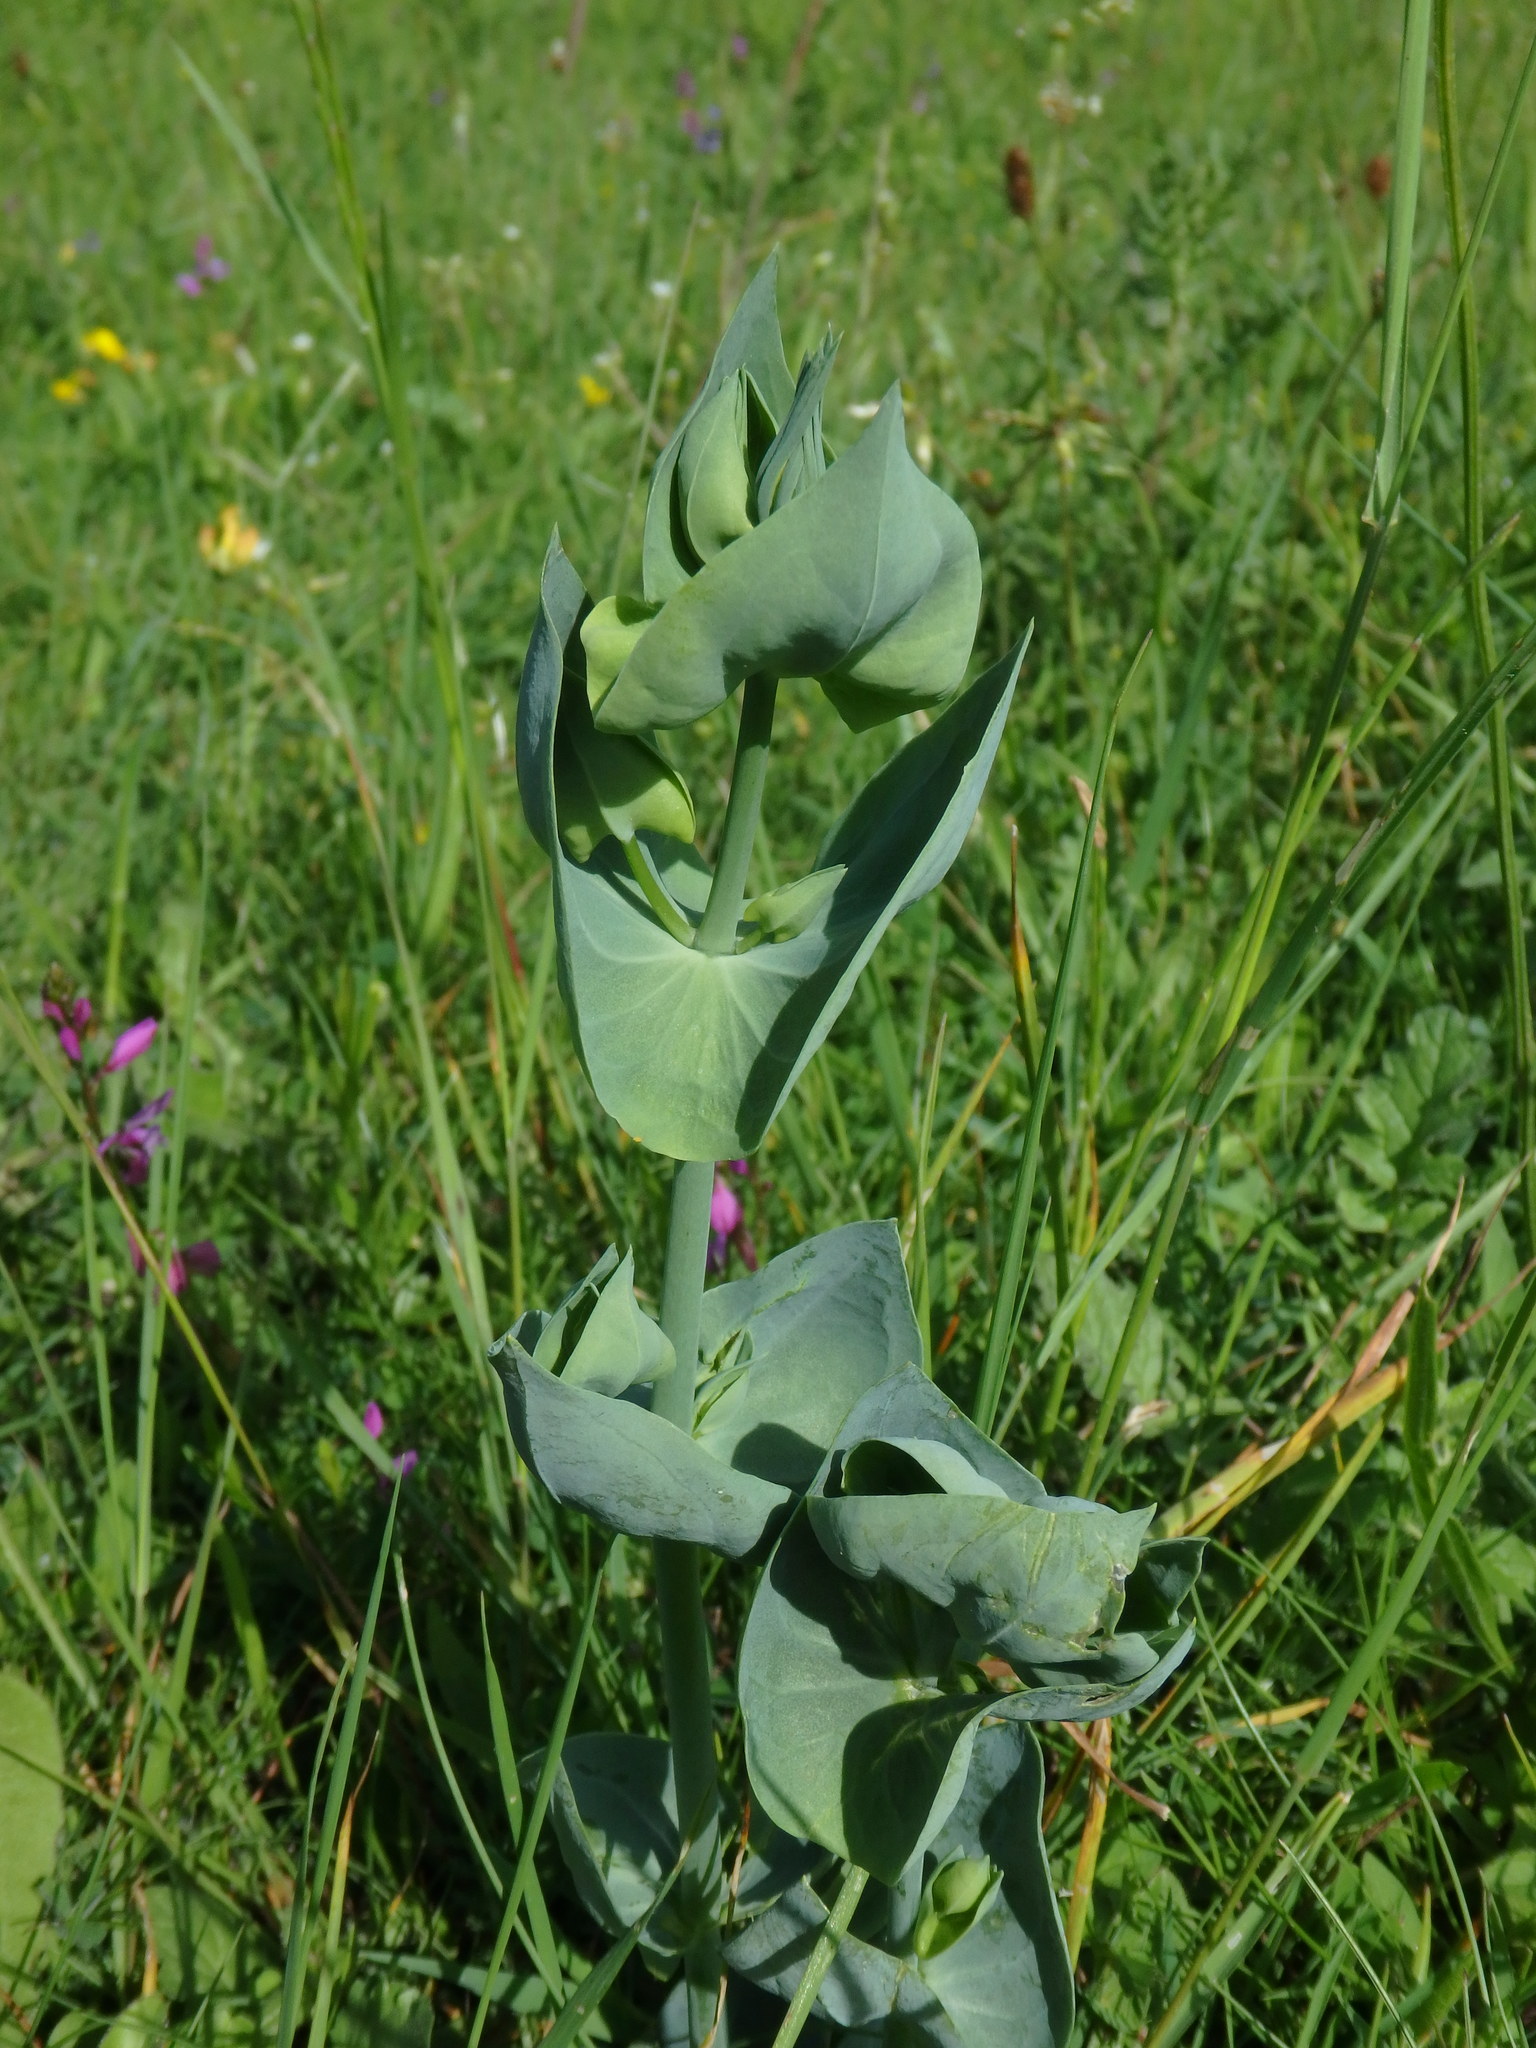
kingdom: Plantae
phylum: Tracheophyta
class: Magnoliopsida
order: Gentianales
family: Gentianaceae
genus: Blackstonia
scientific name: Blackstonia perfoliata
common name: Yellow-wort
